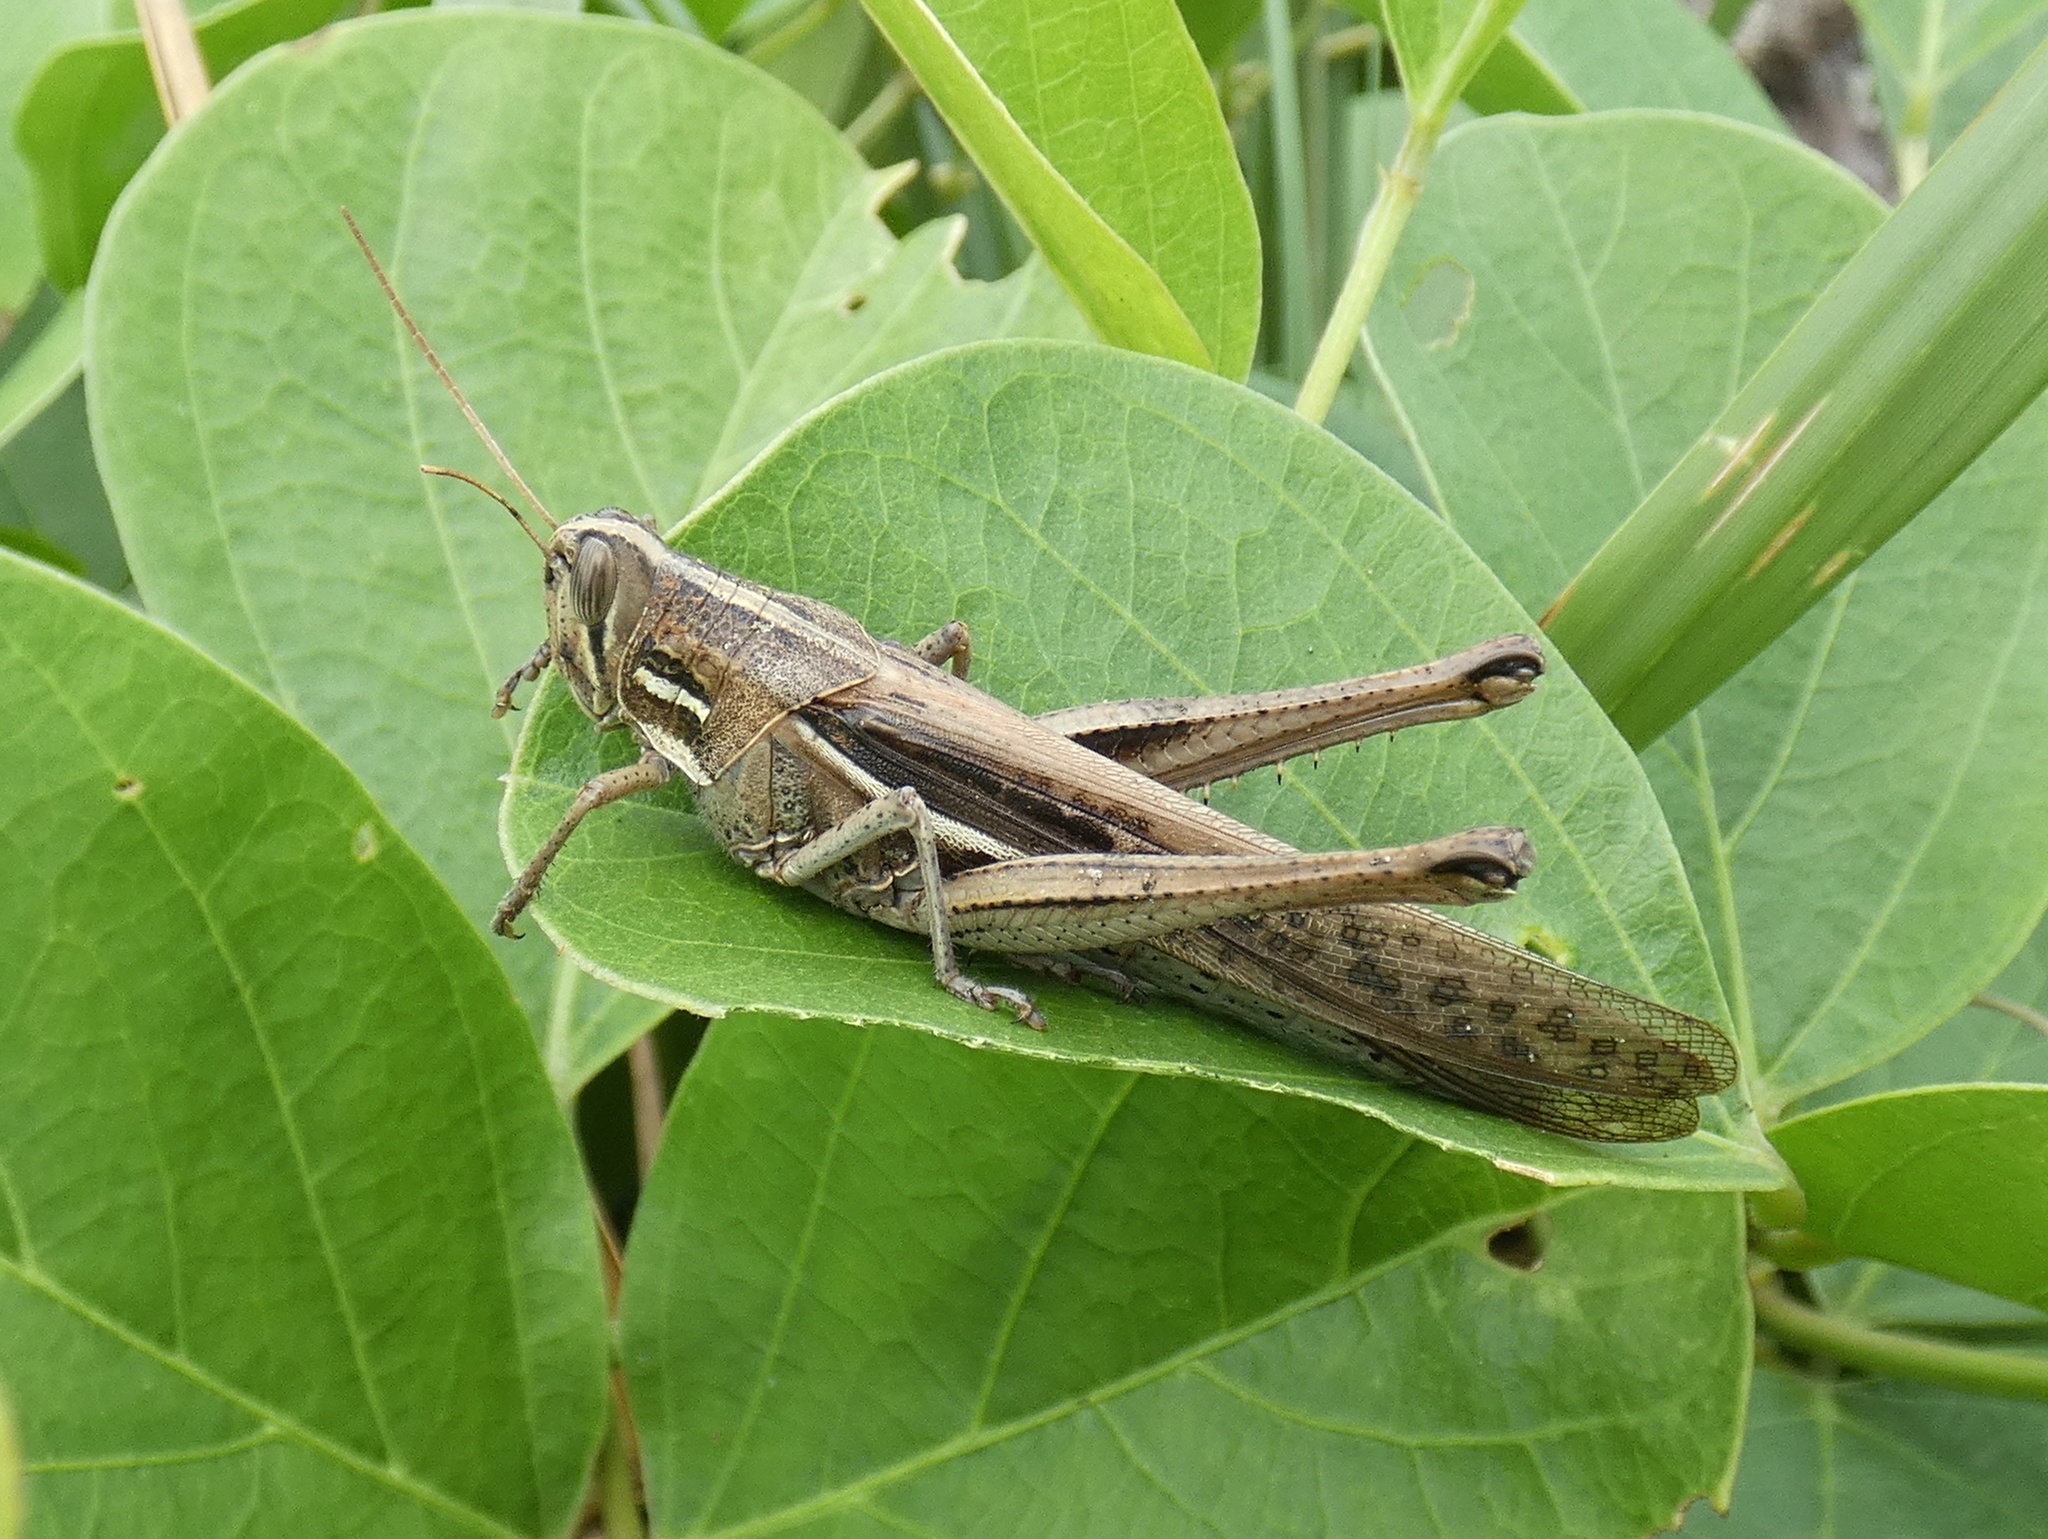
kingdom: Animalia
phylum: Arthropoda
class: Insecta
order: Orthoptera
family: Acrididae
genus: Schistocerca
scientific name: Schistocerca piceifrons
